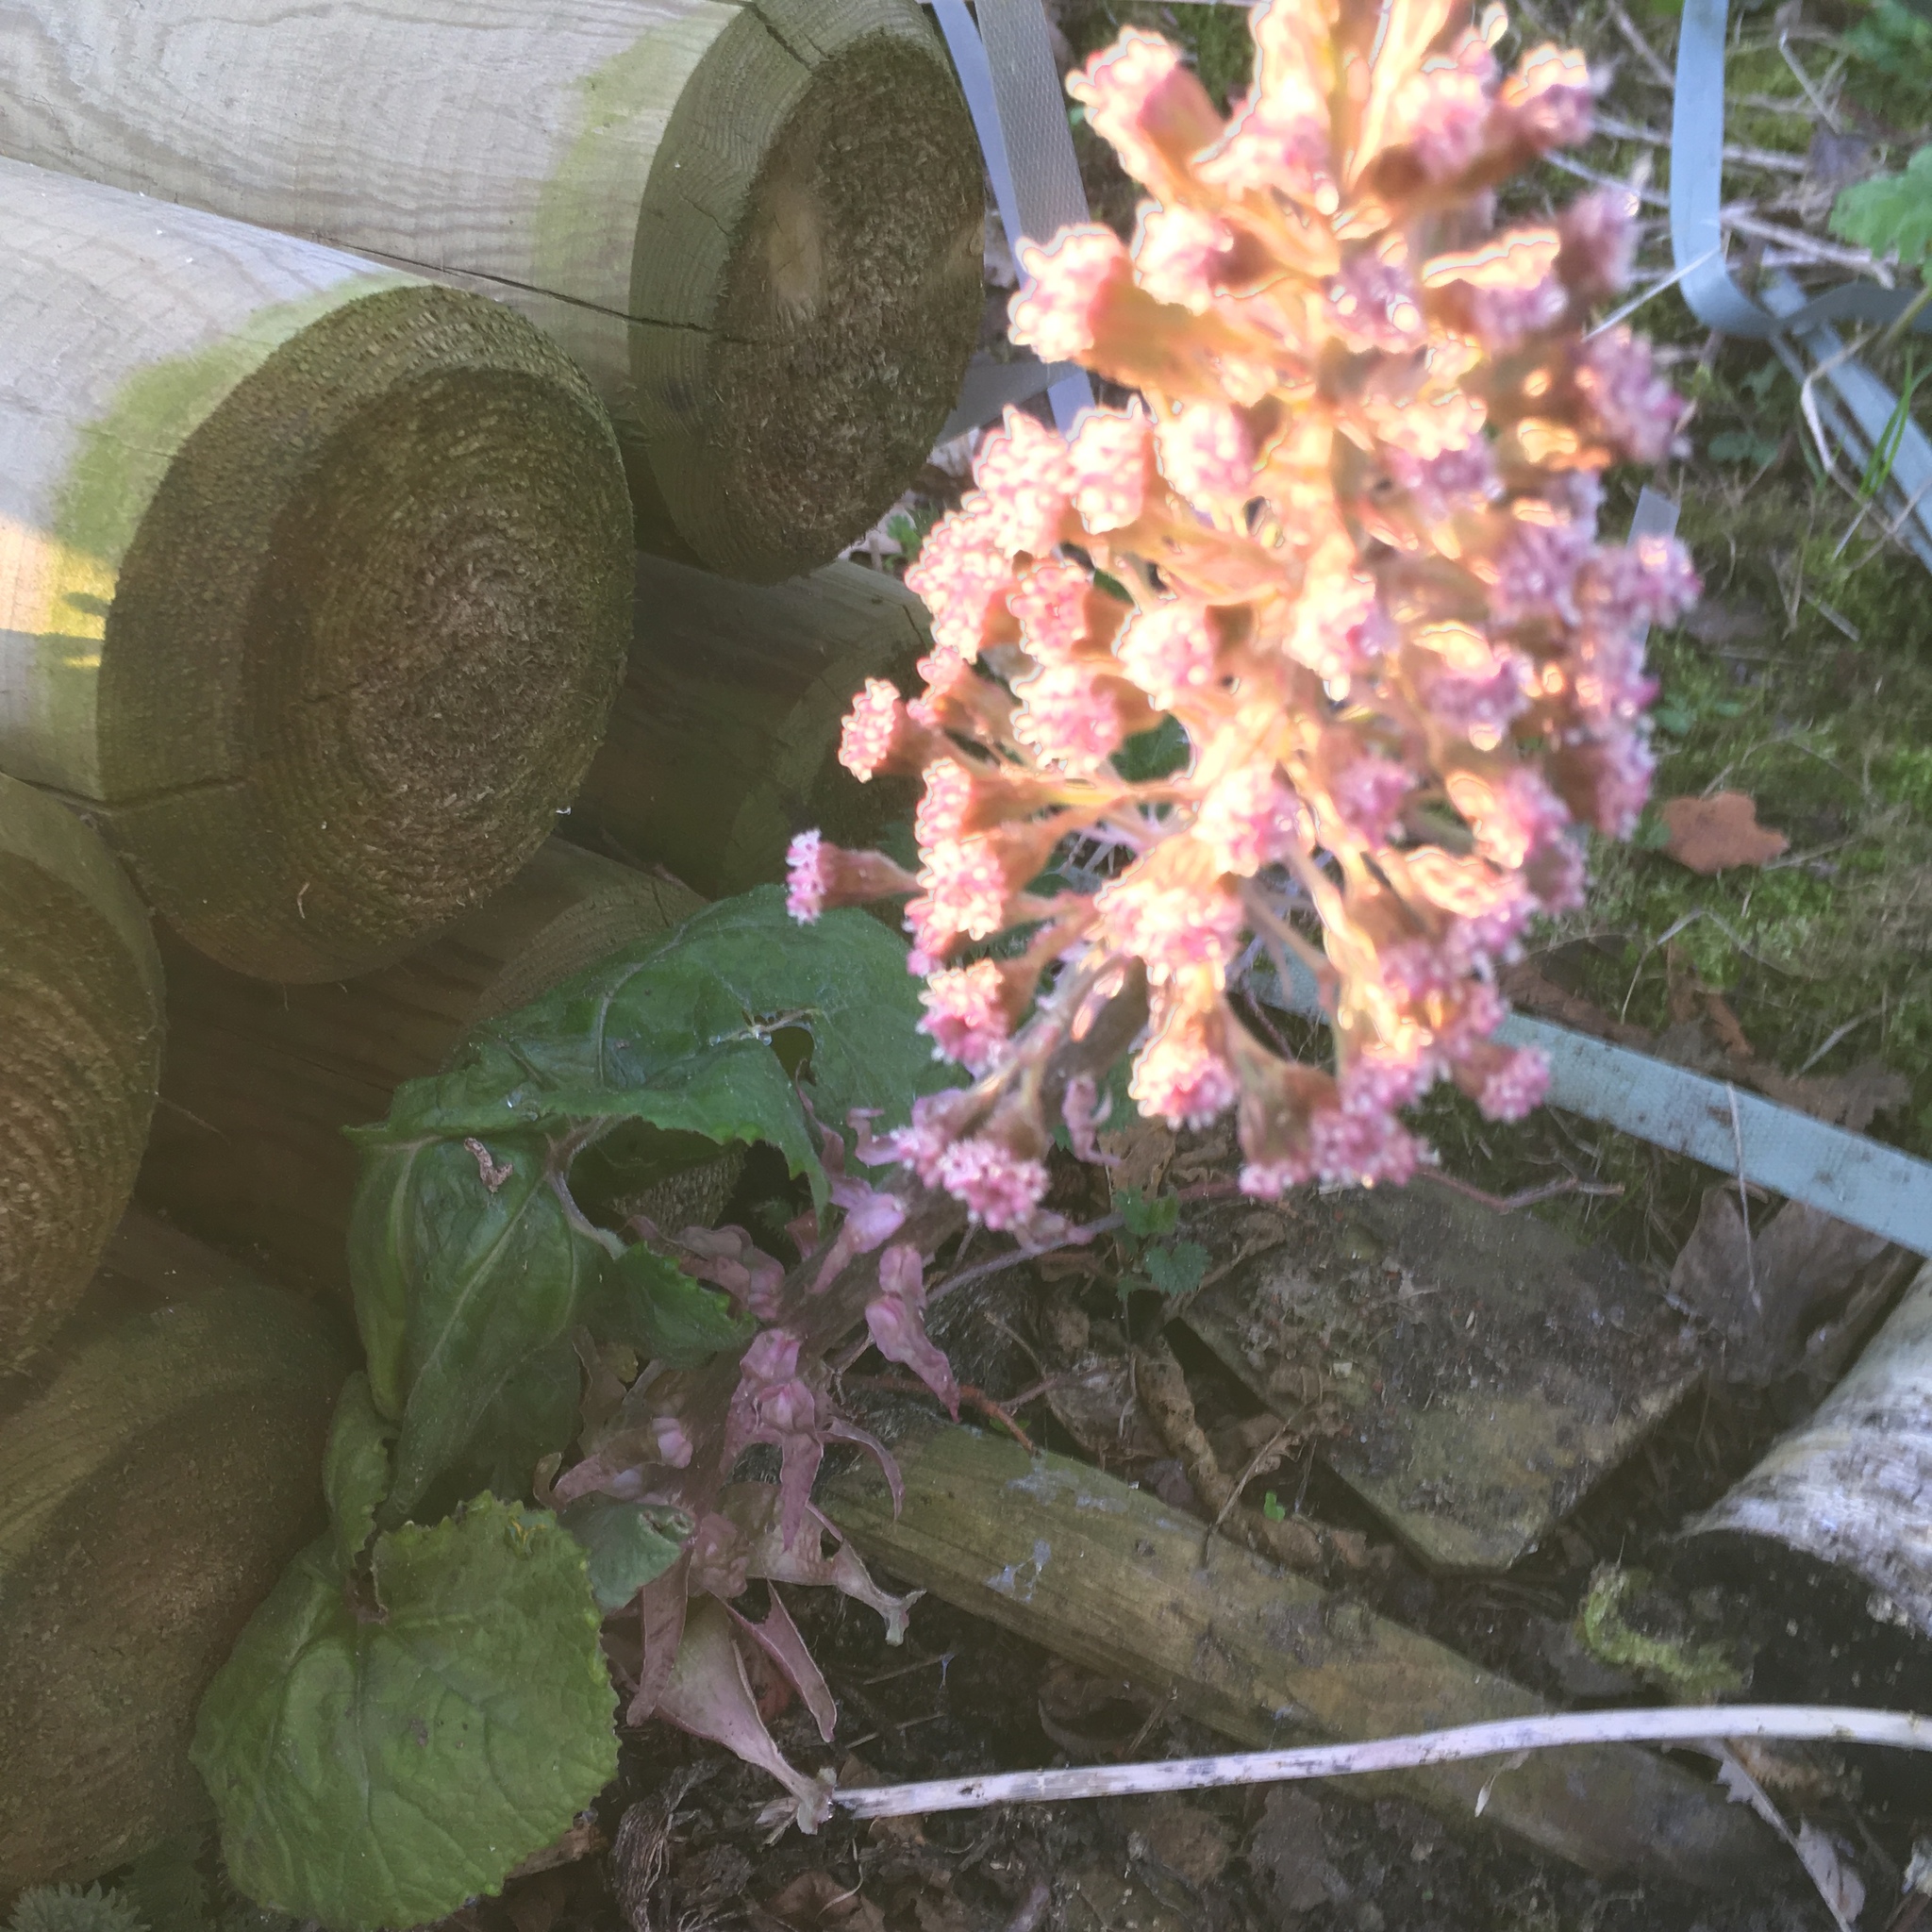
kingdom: Plantae
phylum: Tracheophyta
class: Magnoliopsida
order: Asterales
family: Asteraceae
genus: Petasites
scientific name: Petasites hybridus
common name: Butterbur
